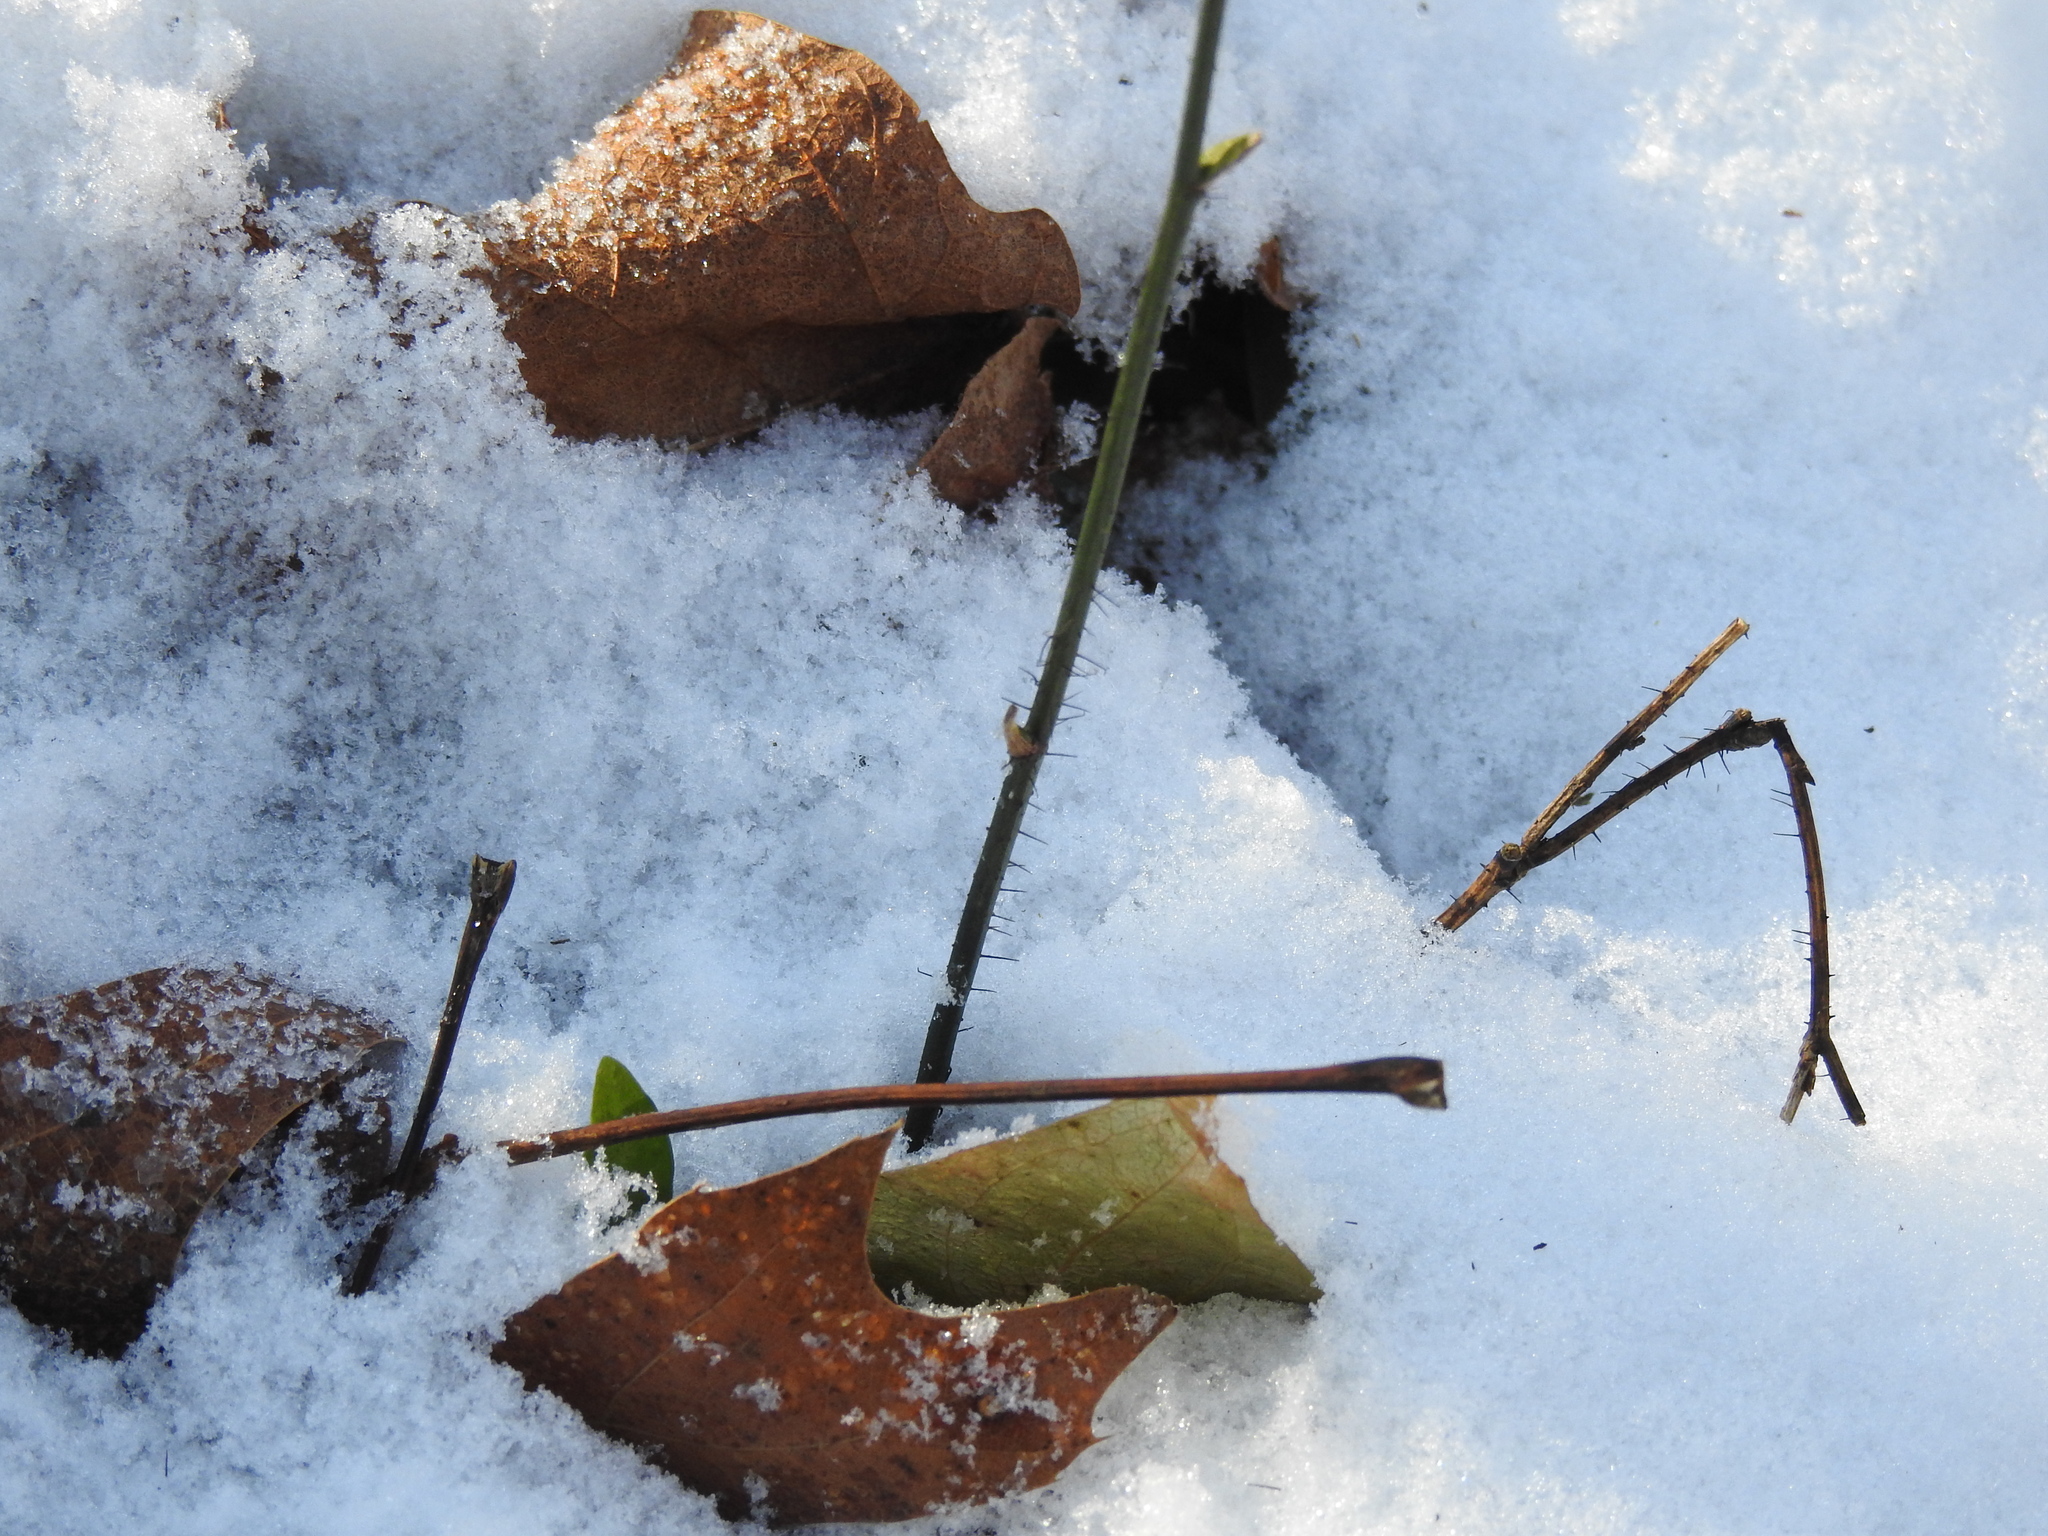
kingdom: Plantae
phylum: Tracheophyta
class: Liliopsida
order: Liliales
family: Smilacaceae
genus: Smilax
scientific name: Smilax tamnoides
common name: Hellfetter
